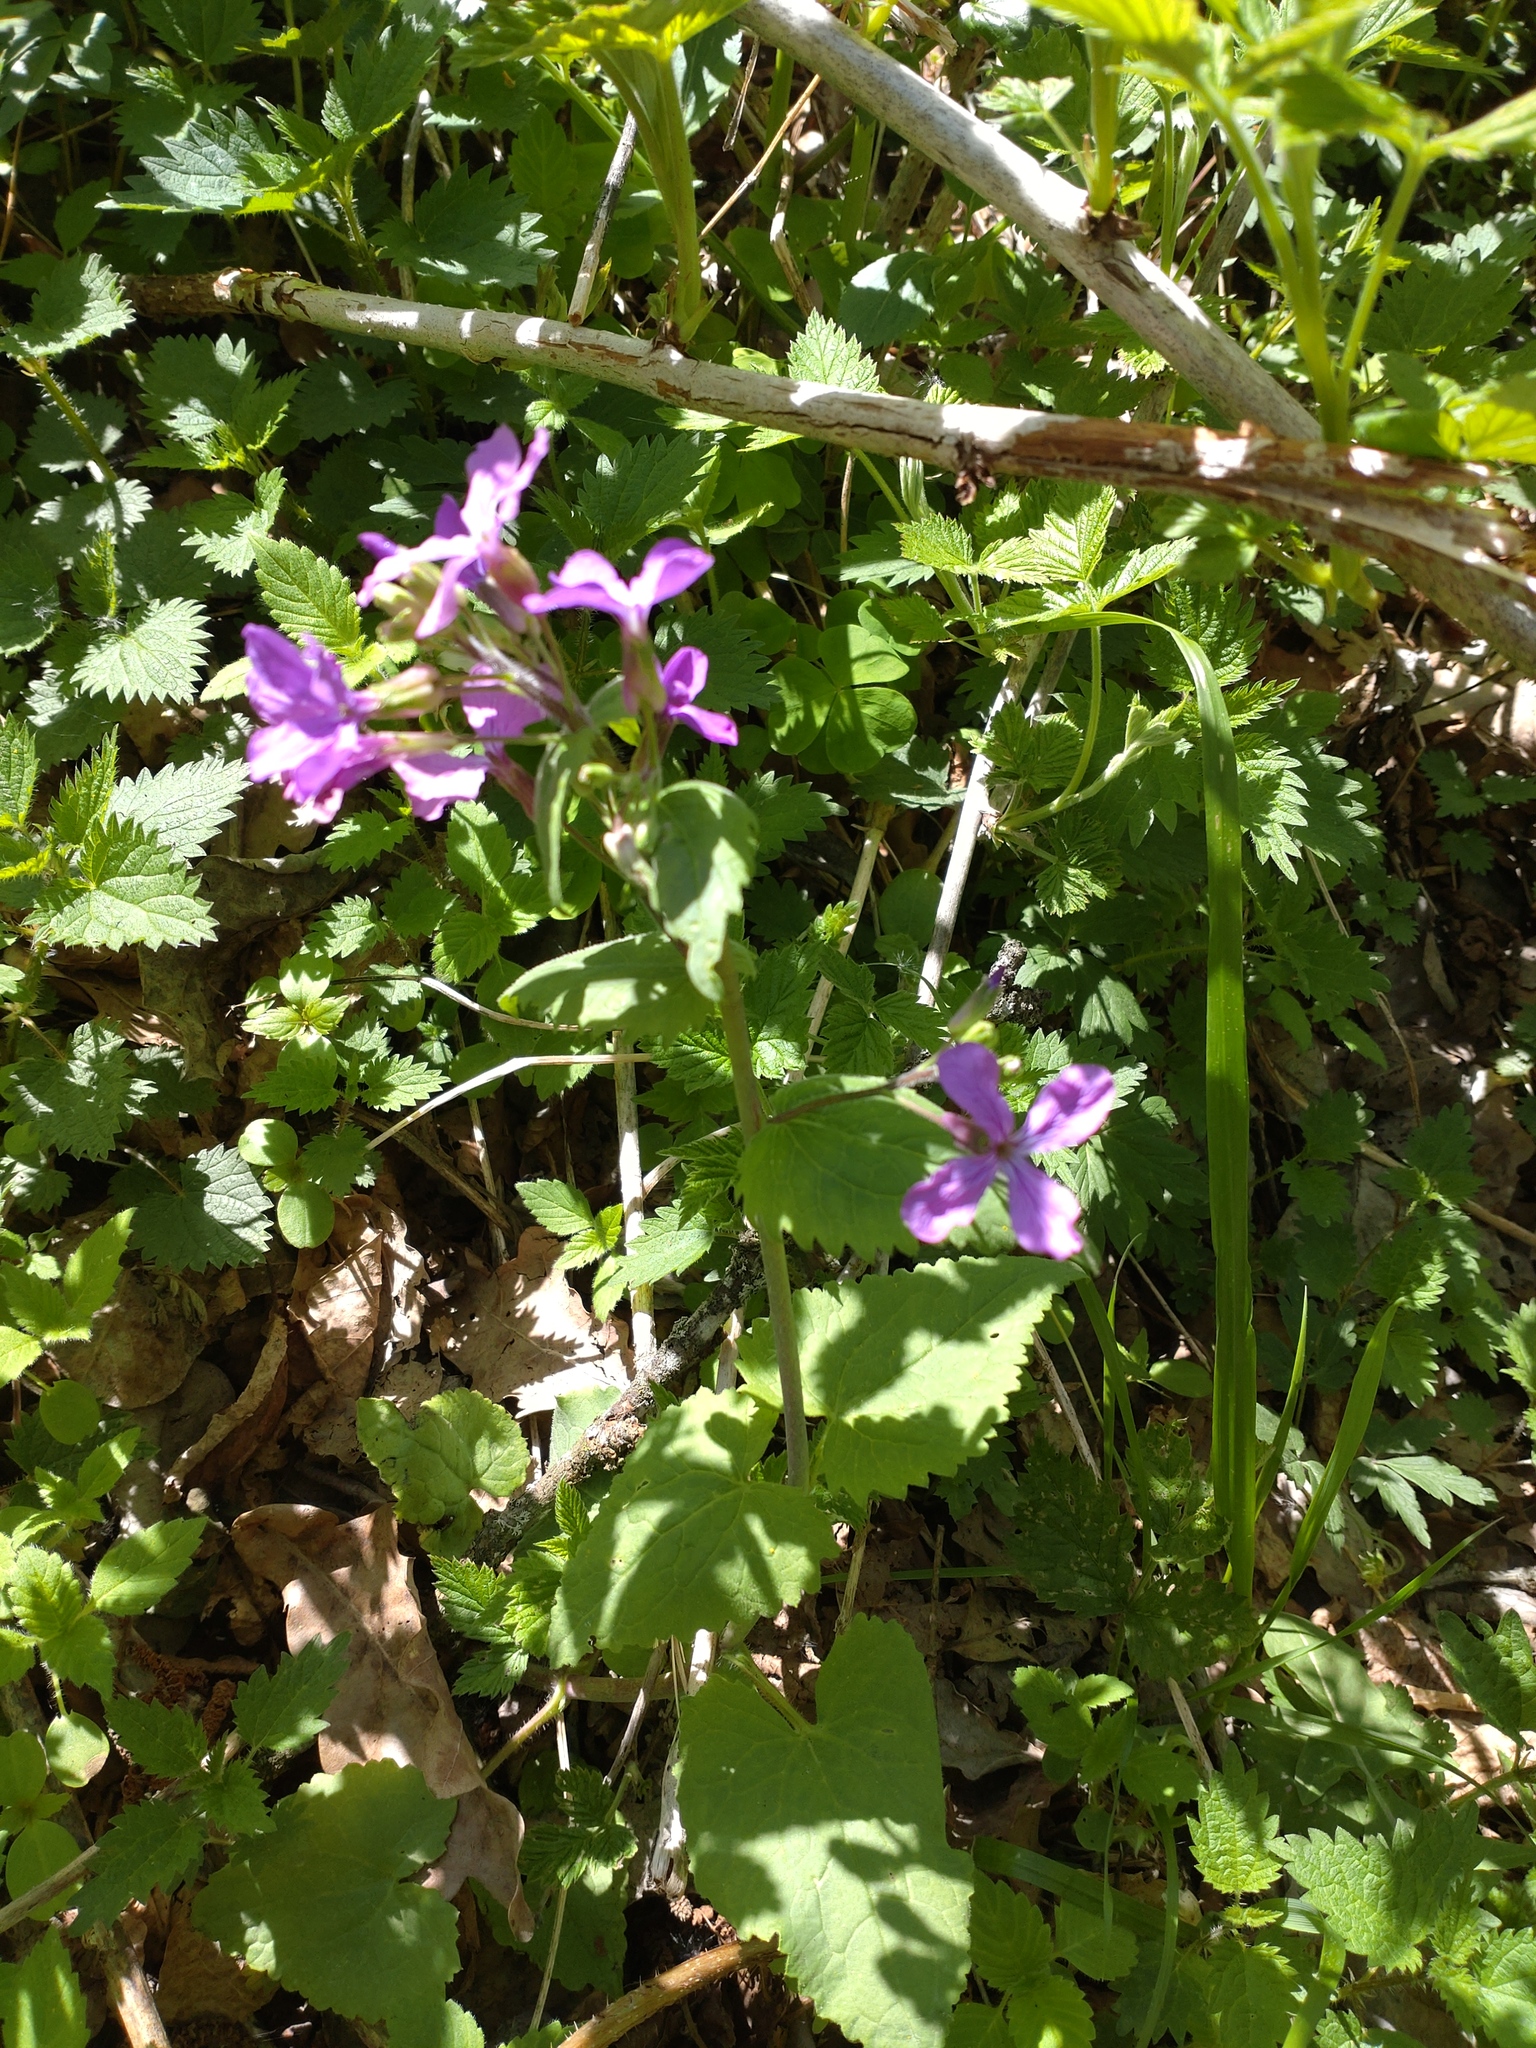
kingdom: Plantae
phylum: Tracheophyta
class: Magnoliopsida
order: Brassicales
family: Brassicaceae
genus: Lunaria
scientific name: Lunaria annua
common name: Honesty
